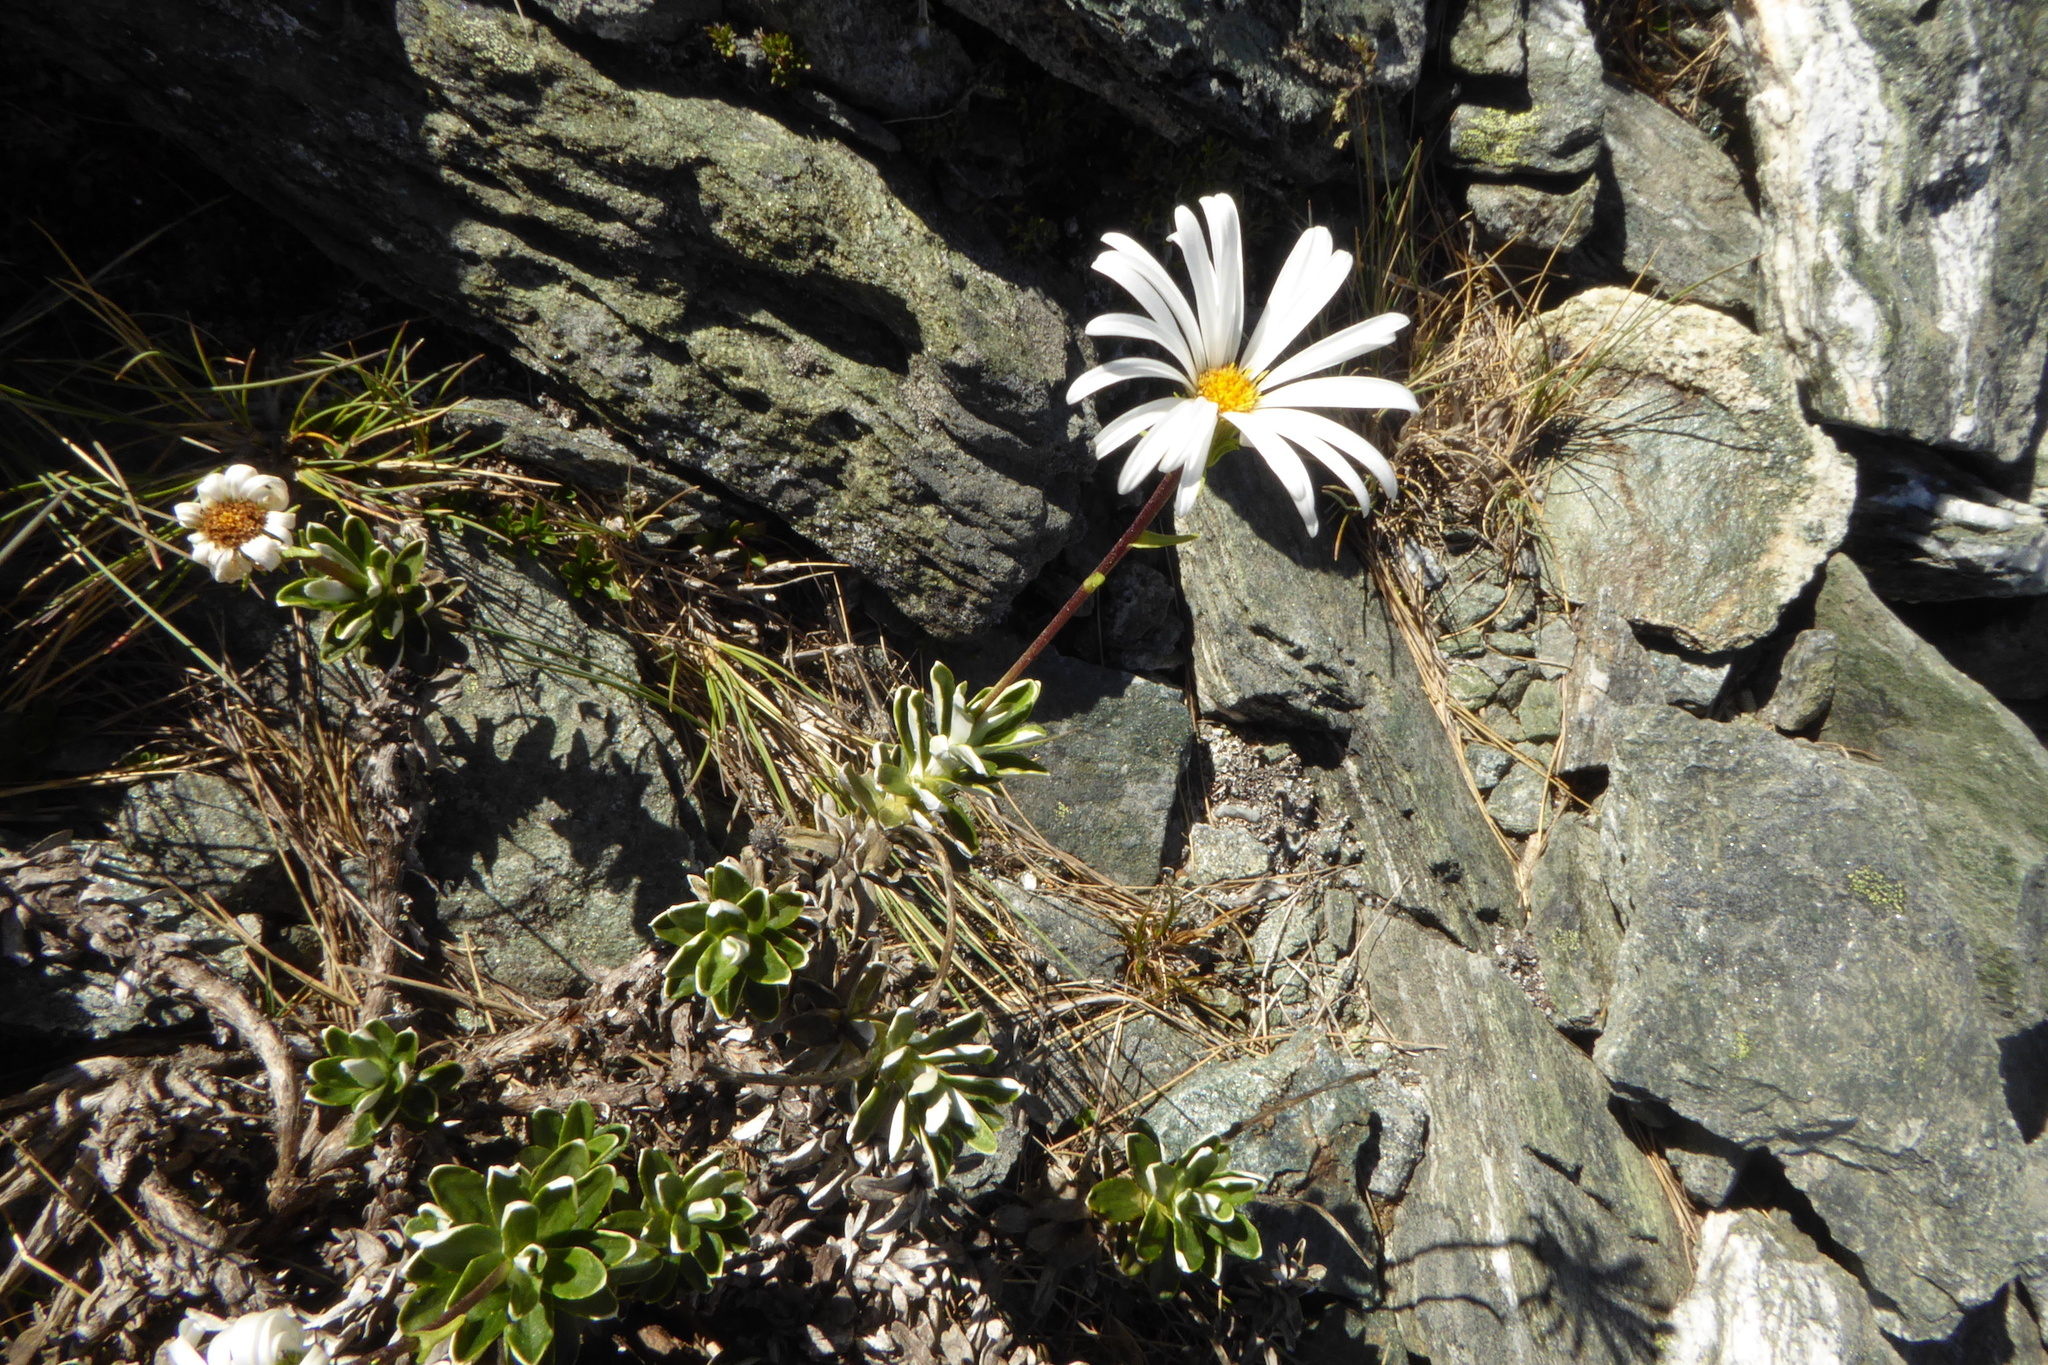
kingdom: Plantae
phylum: Tracheophyta
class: Magnoliopsida
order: Asterales
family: Asteraceae
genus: Celmisia
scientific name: Celmisia angustifolia
